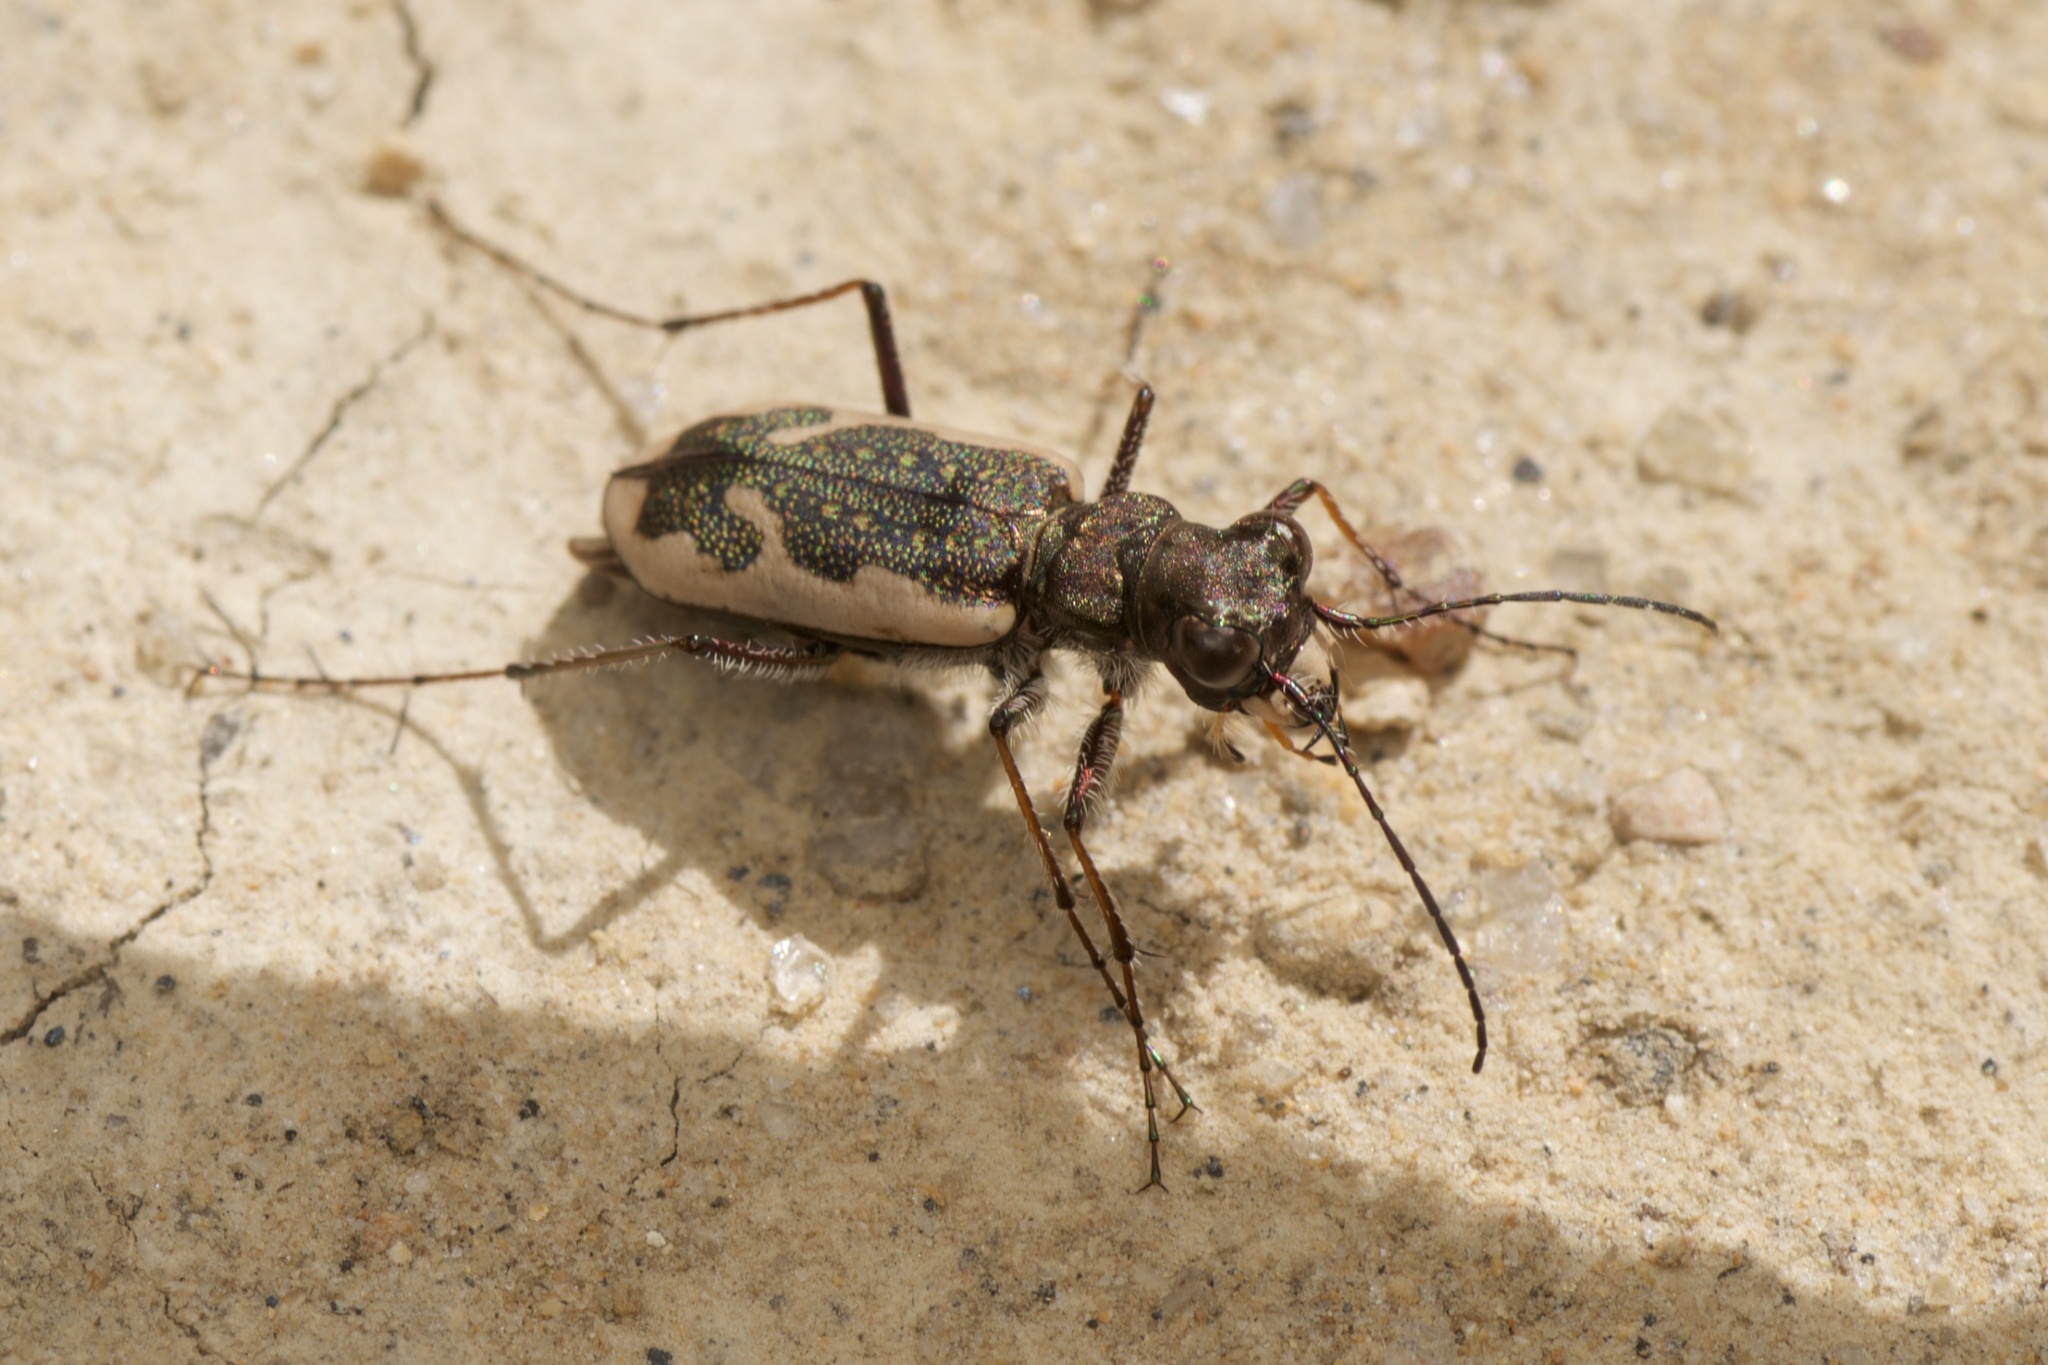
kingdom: Animalia
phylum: Arthropoda
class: Insecta
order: Coleoptera
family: Carabidae
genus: Neocicindela
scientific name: Neocicindela tuberculata
